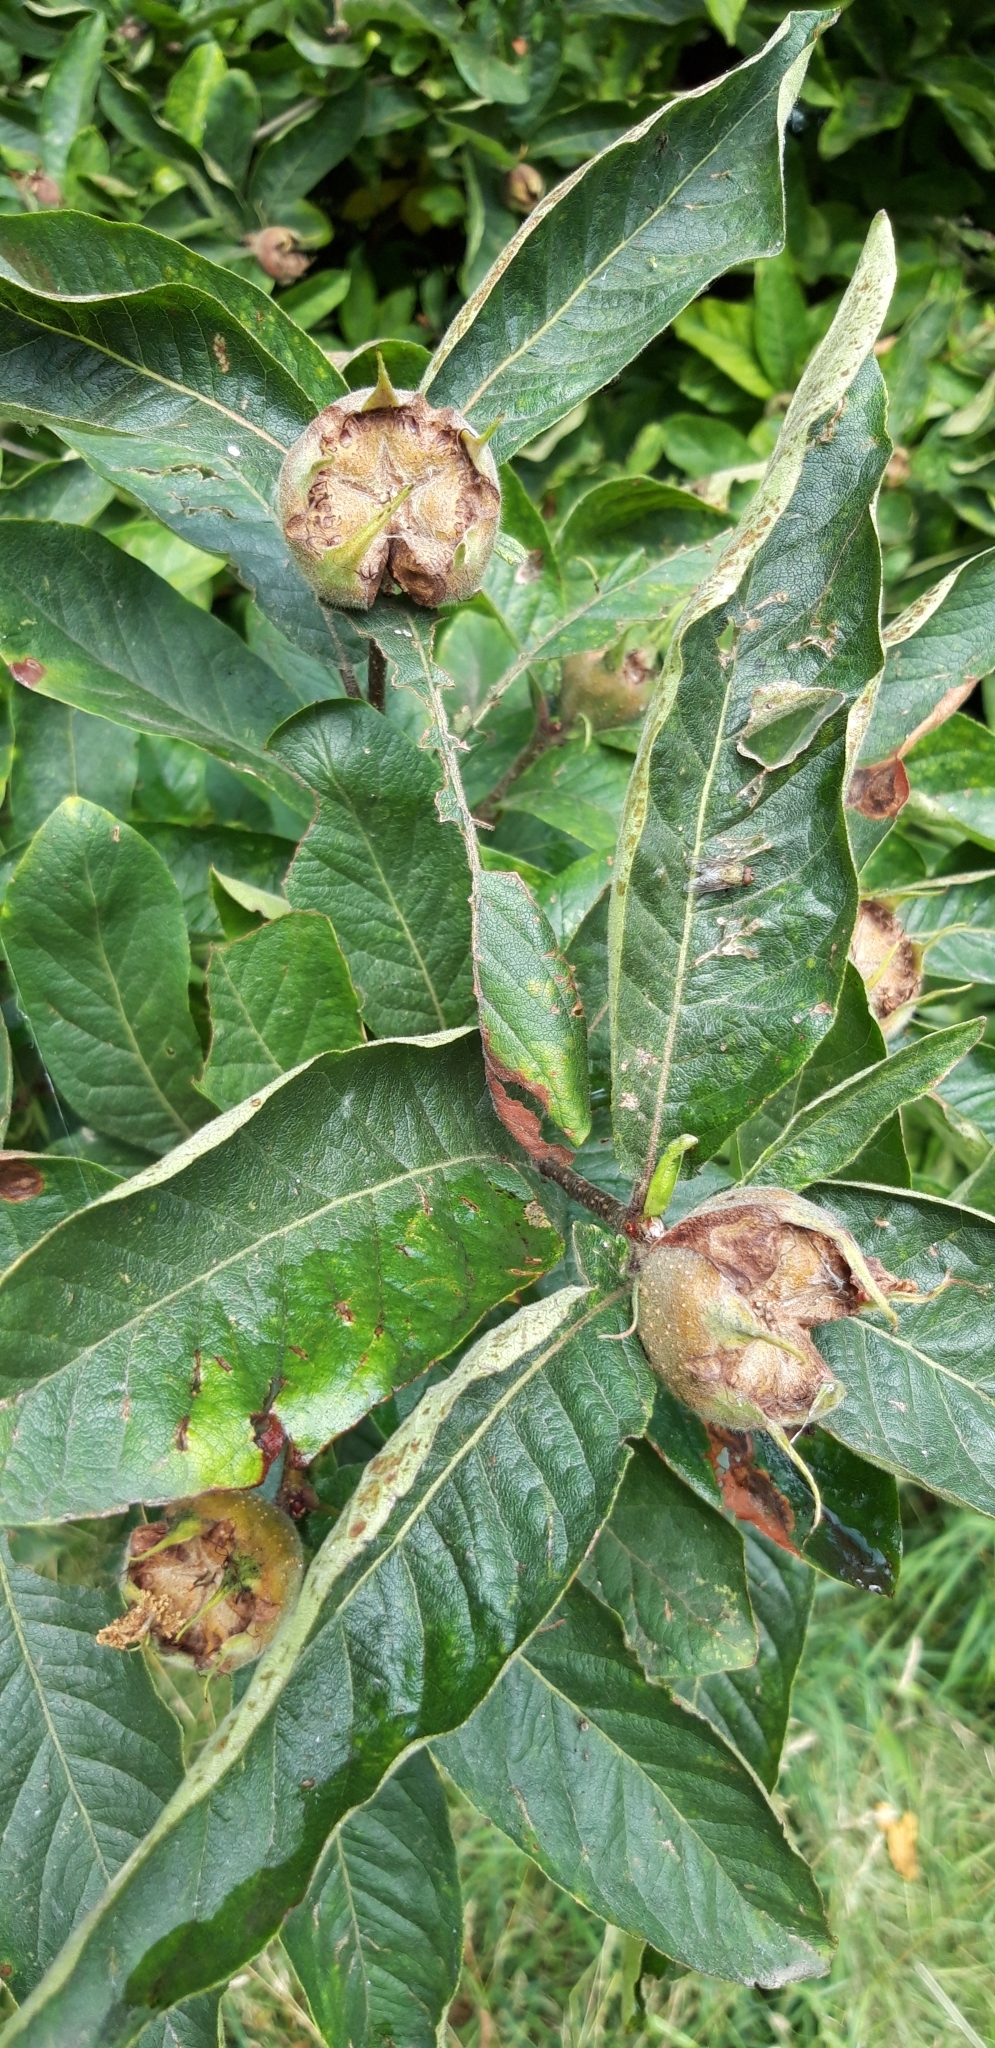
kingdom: Plantae
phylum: Tracheophyta
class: Magnoliopsida
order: Rosales
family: Rosaceae
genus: Mespilus
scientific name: Mespilus germanica
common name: Medlar
